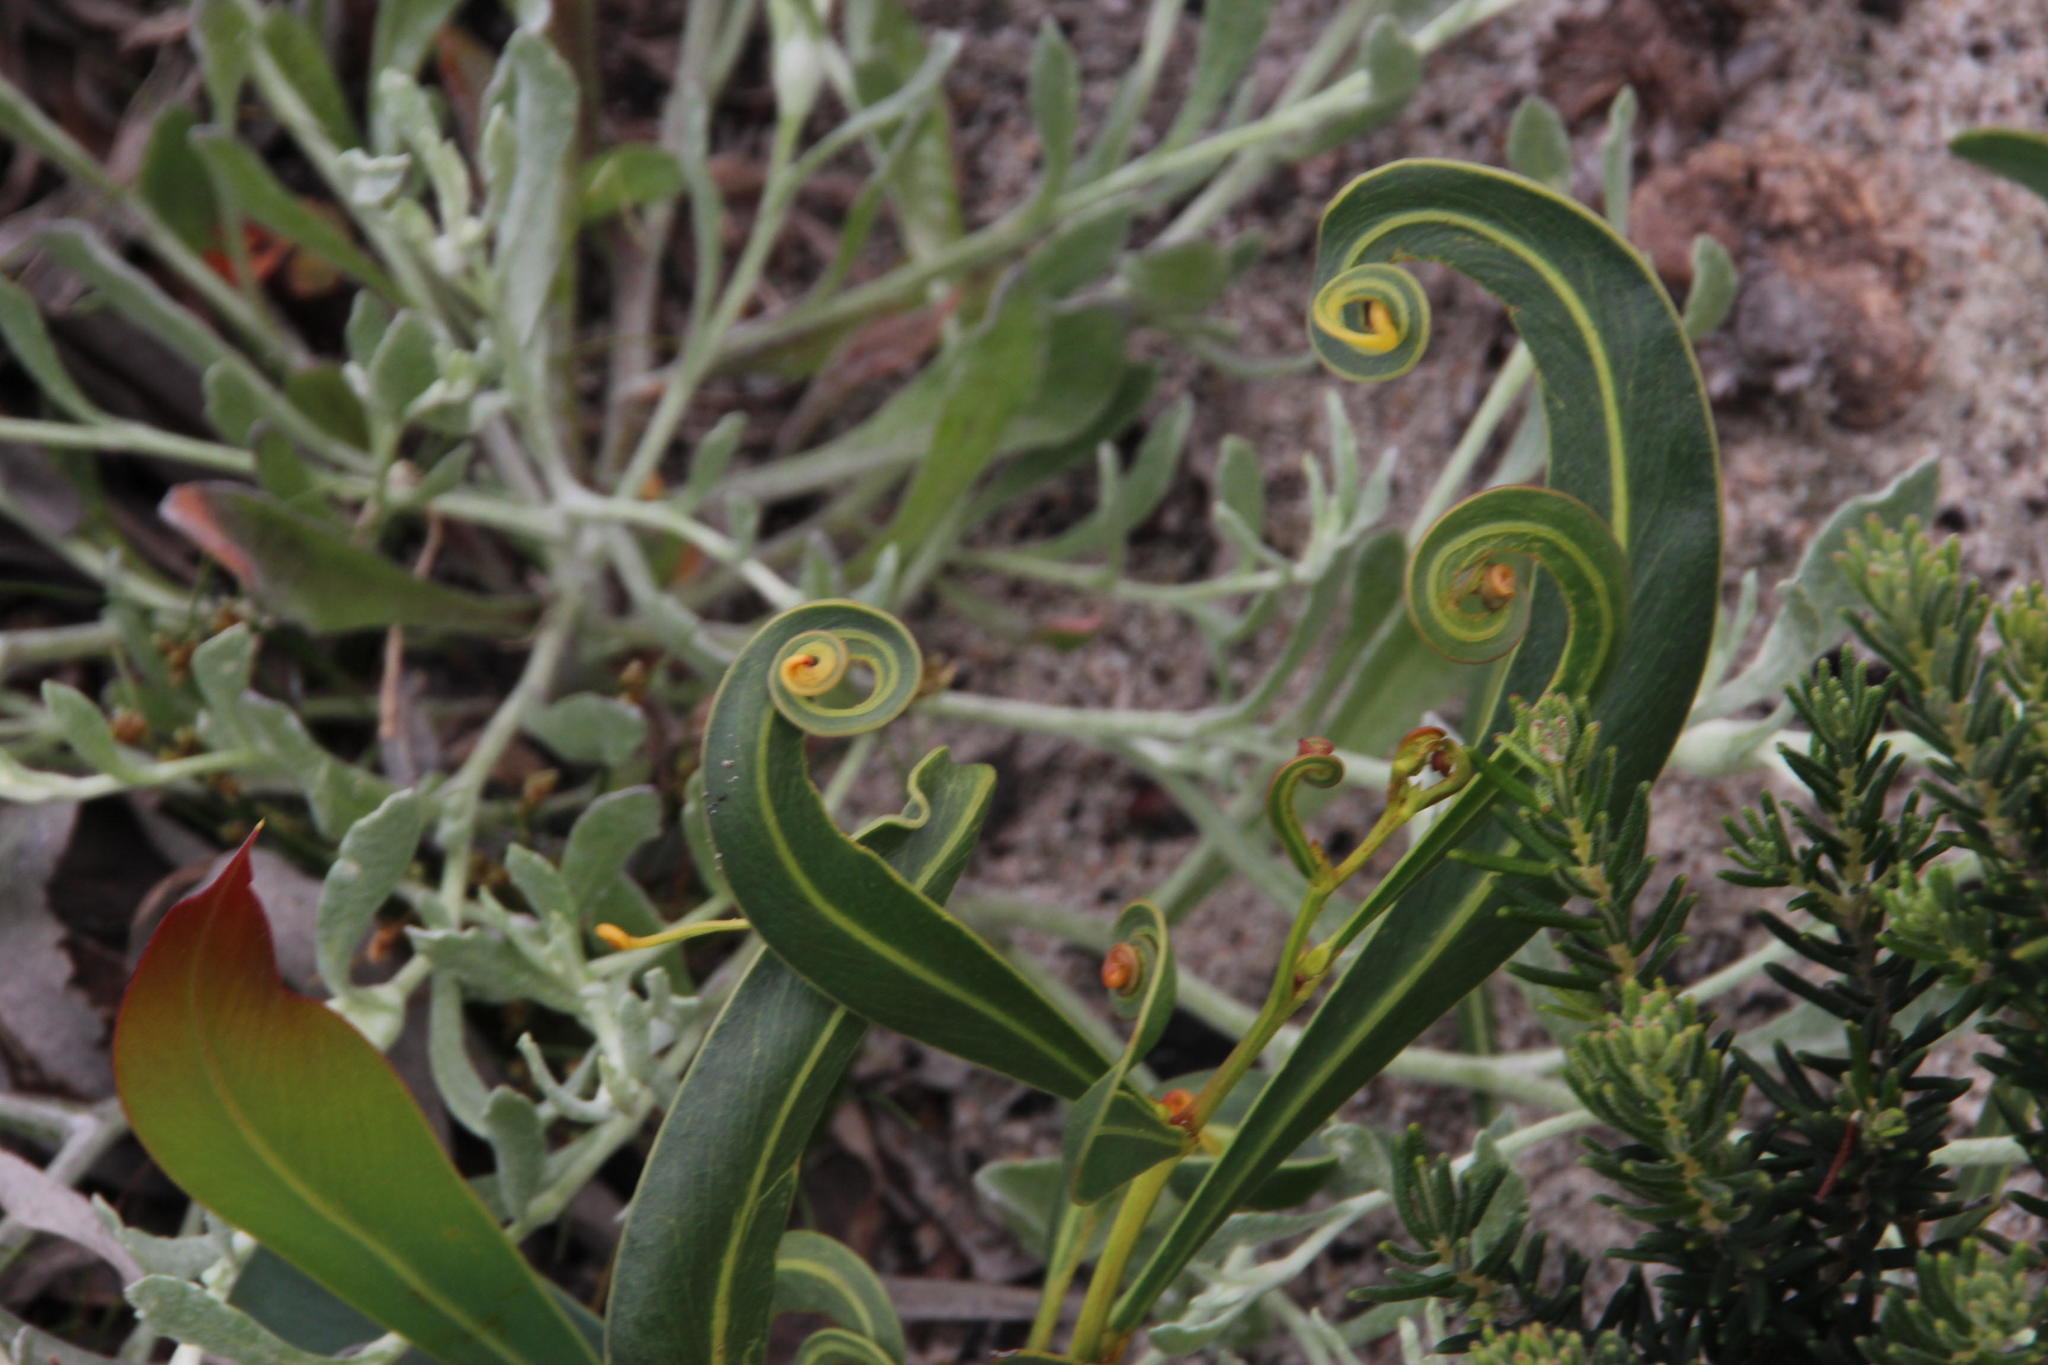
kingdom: Plantae
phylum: Tracheophyta
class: Magnoliopsida
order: Fabales
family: Fabaceae
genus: Acacia
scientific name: Acacia saligna
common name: Orange wattle
